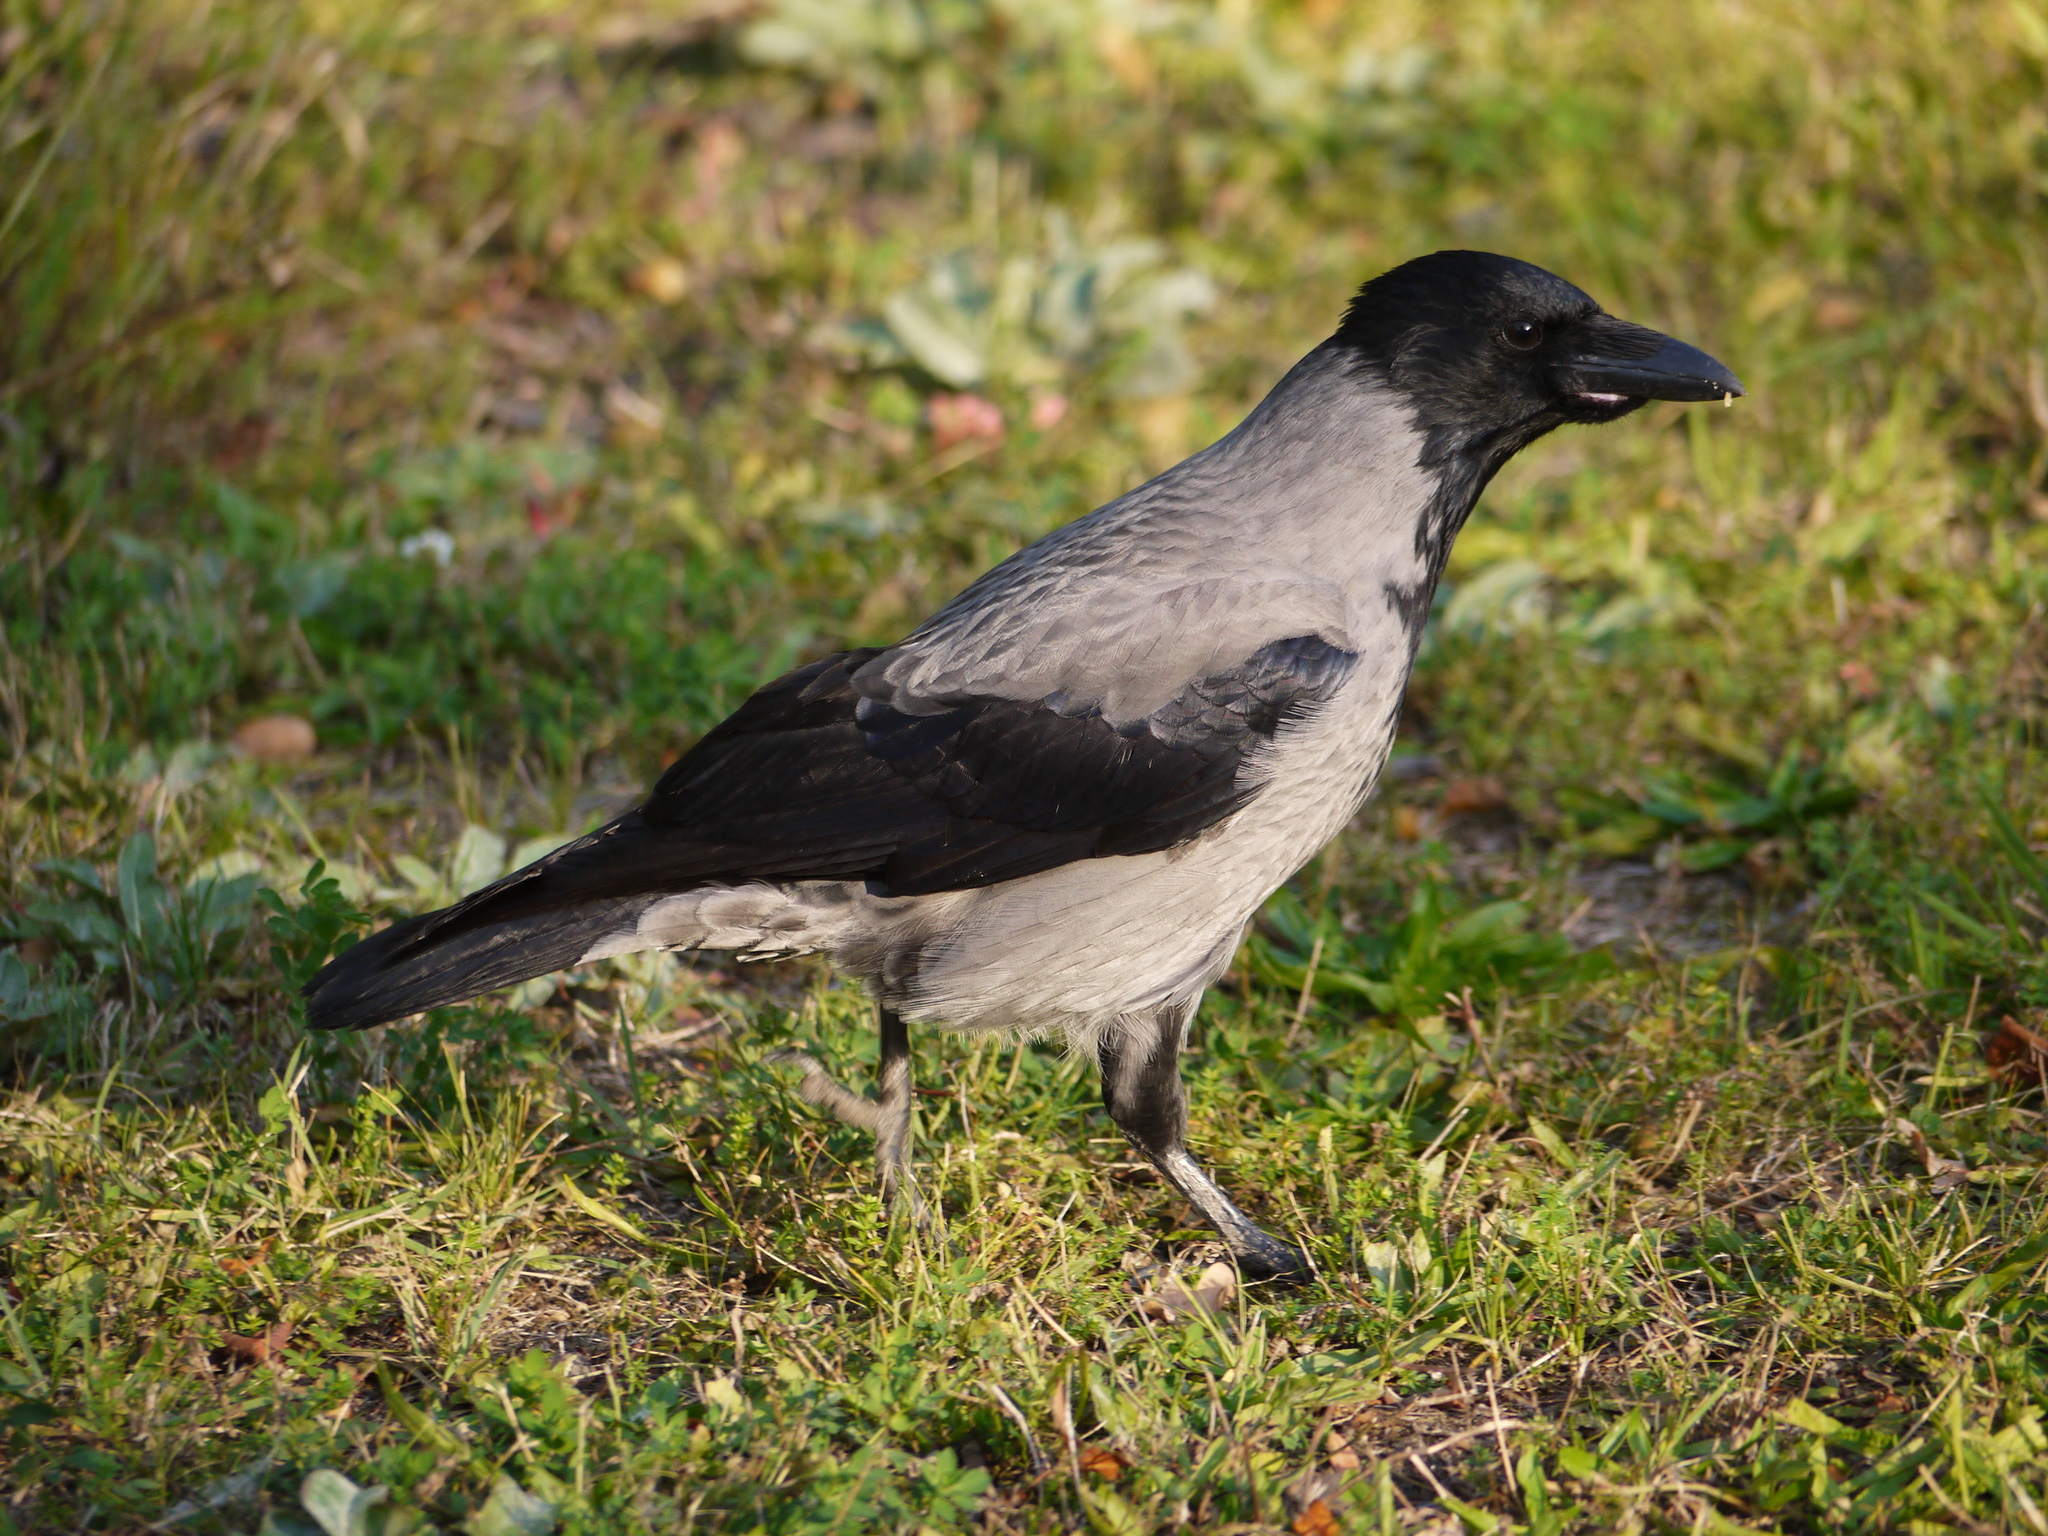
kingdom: Animalia
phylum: Chordata
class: Aves
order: Passeriformes
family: Corvidae
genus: Corvus
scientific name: Corvus cornix
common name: Hooded crow
